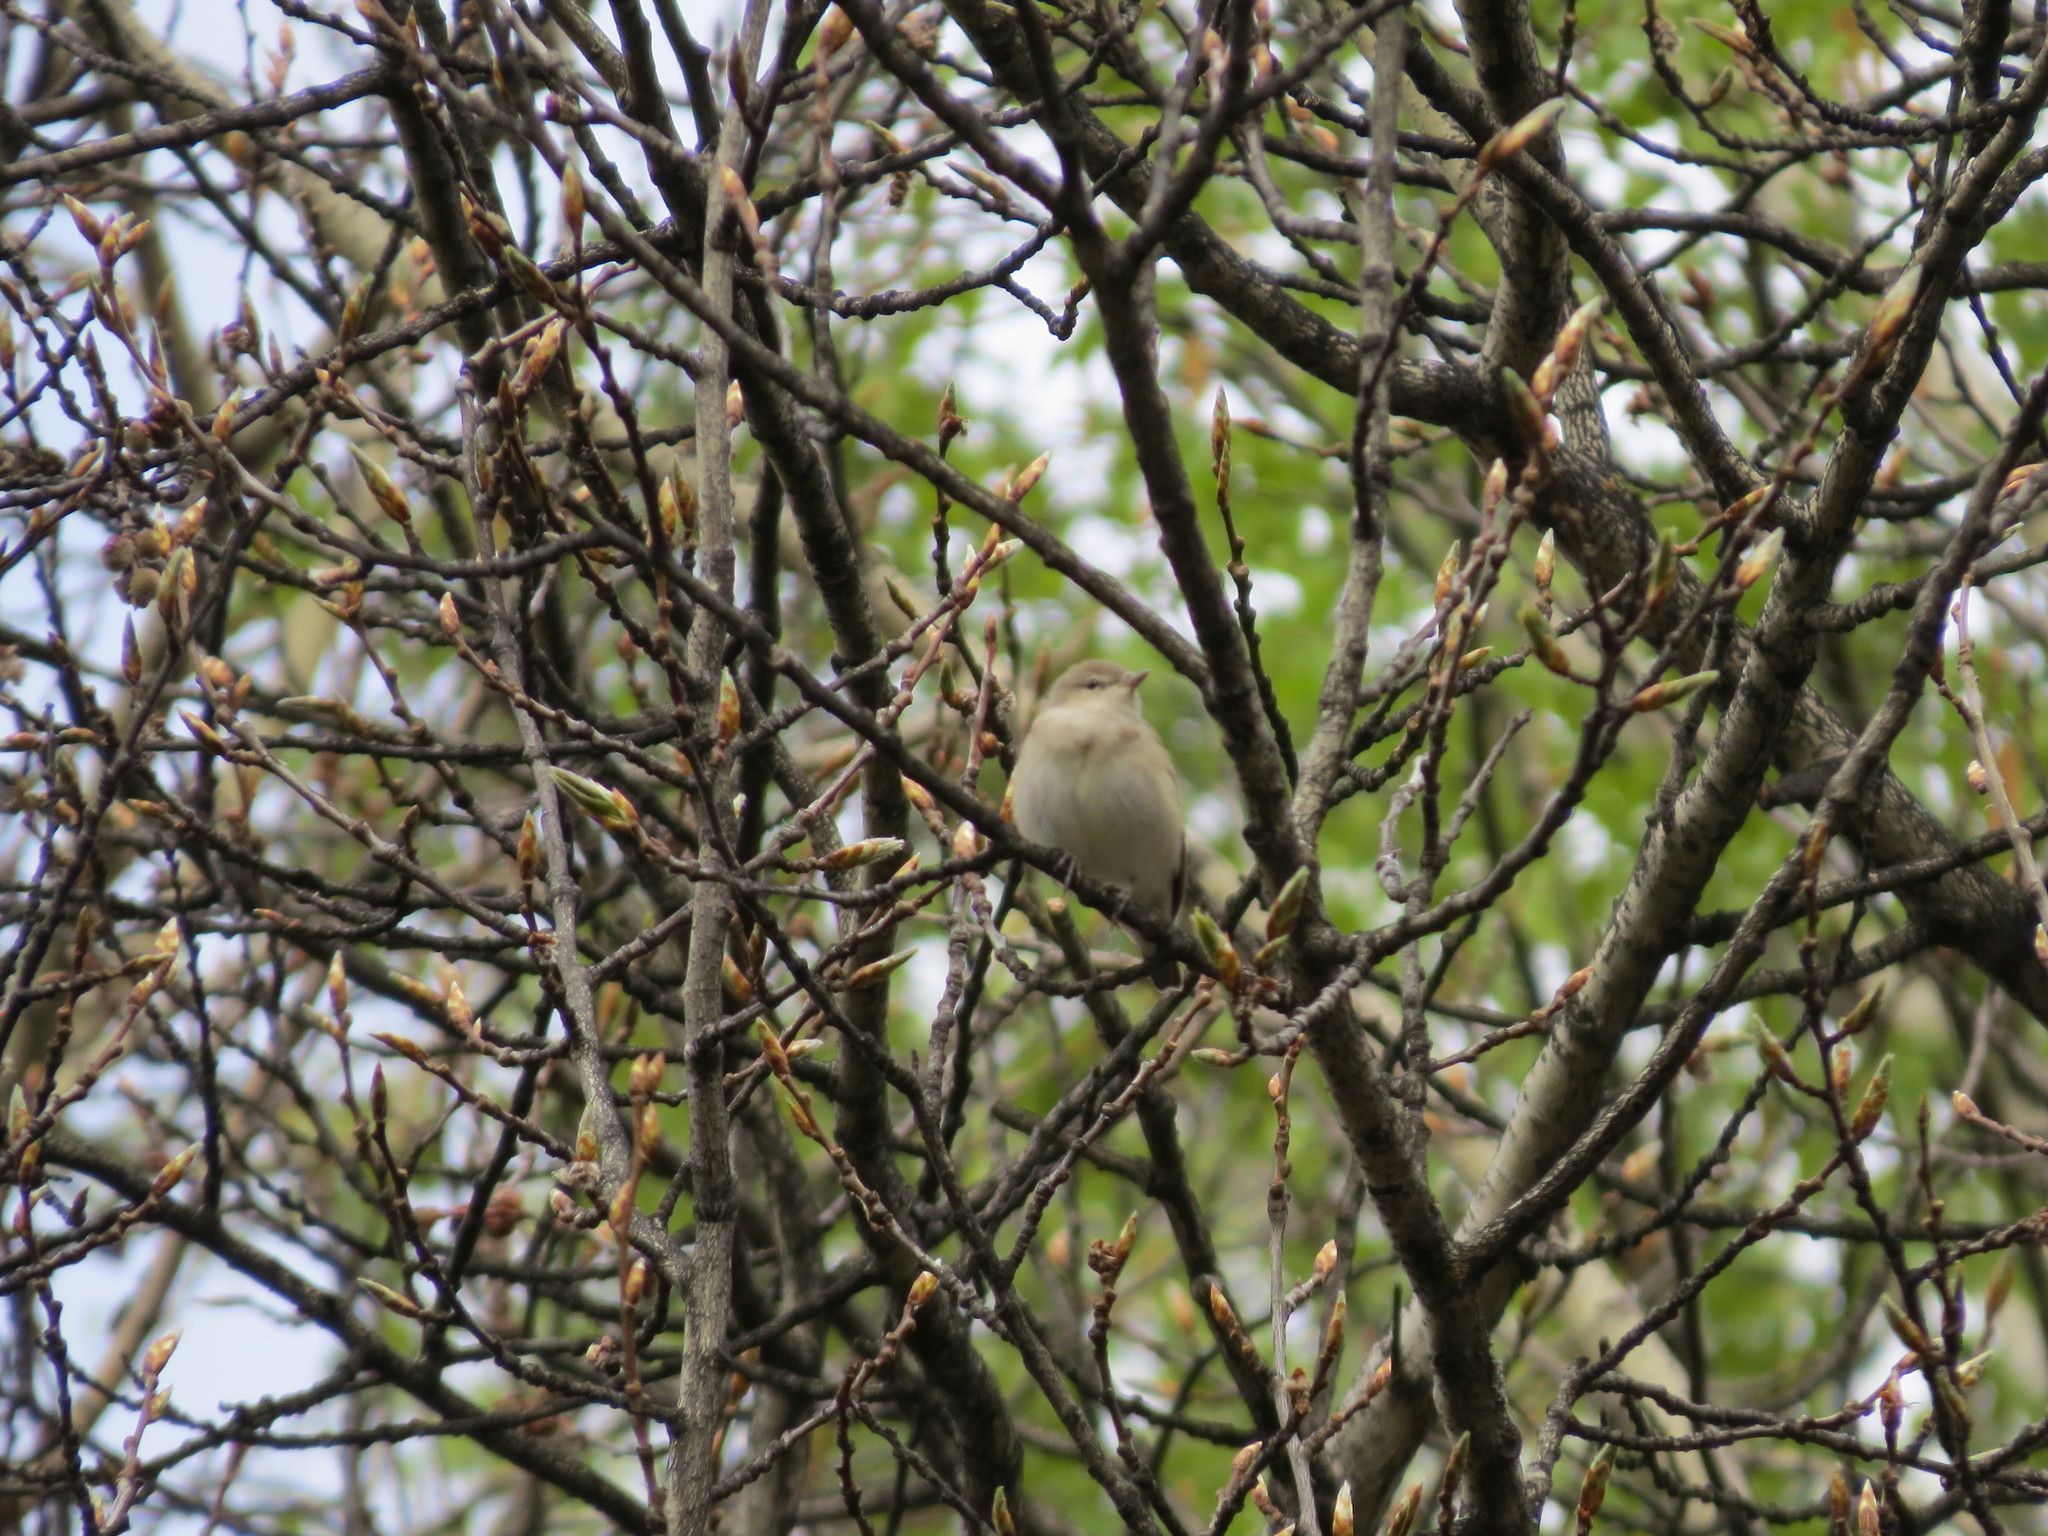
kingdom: Animalia
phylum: Chordata
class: Aves
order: Passeriformes
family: Sylviidae
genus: Sylvia
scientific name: Sylvia borin
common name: Garden warbler
